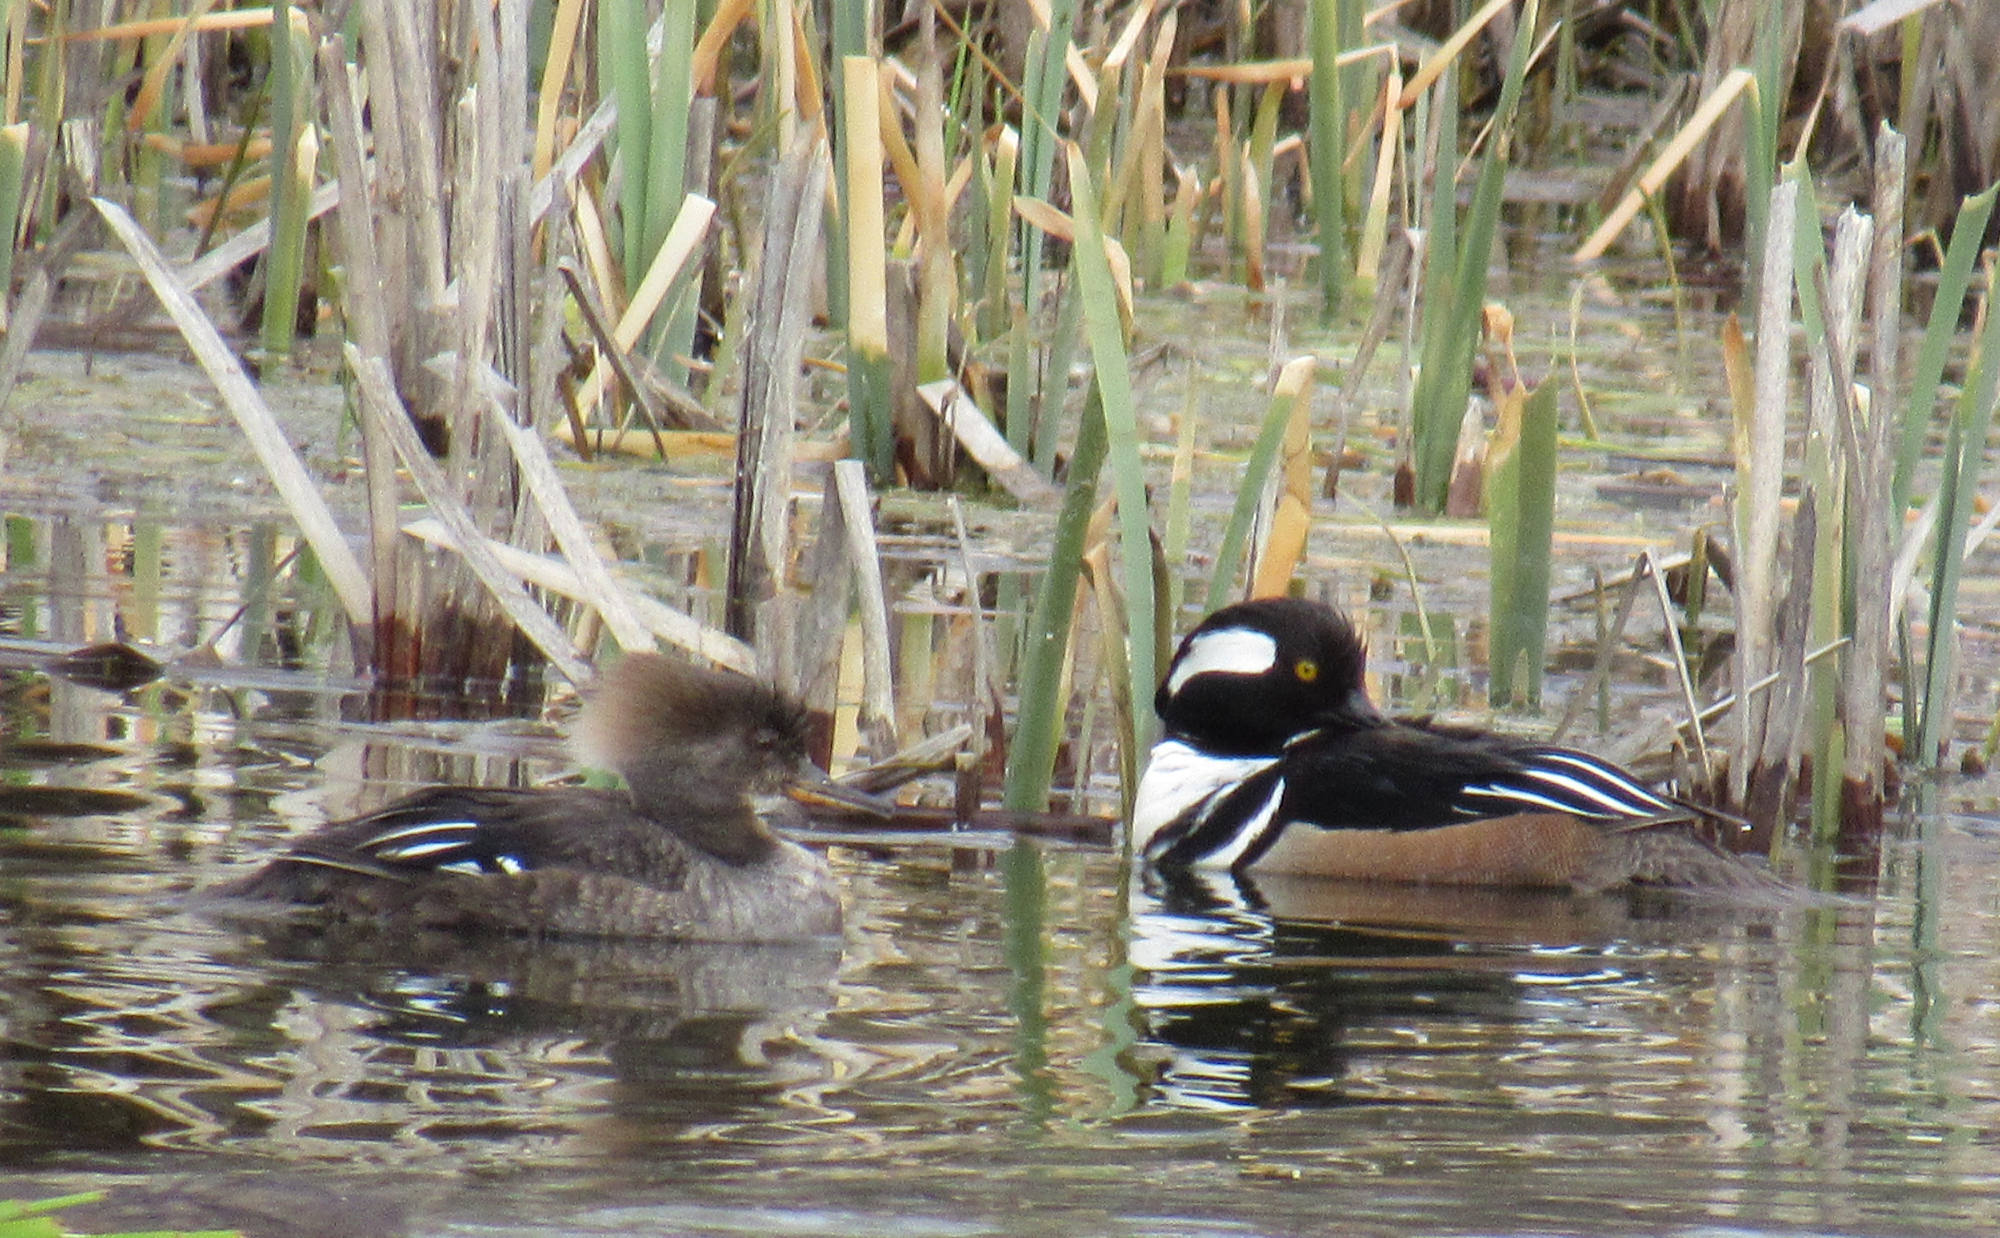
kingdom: Animalia
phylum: Chordata
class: Aves
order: Anseriformes
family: Anatidae
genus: Lophodytes
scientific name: Lophodytes cucullatus
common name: Hooded merganser
